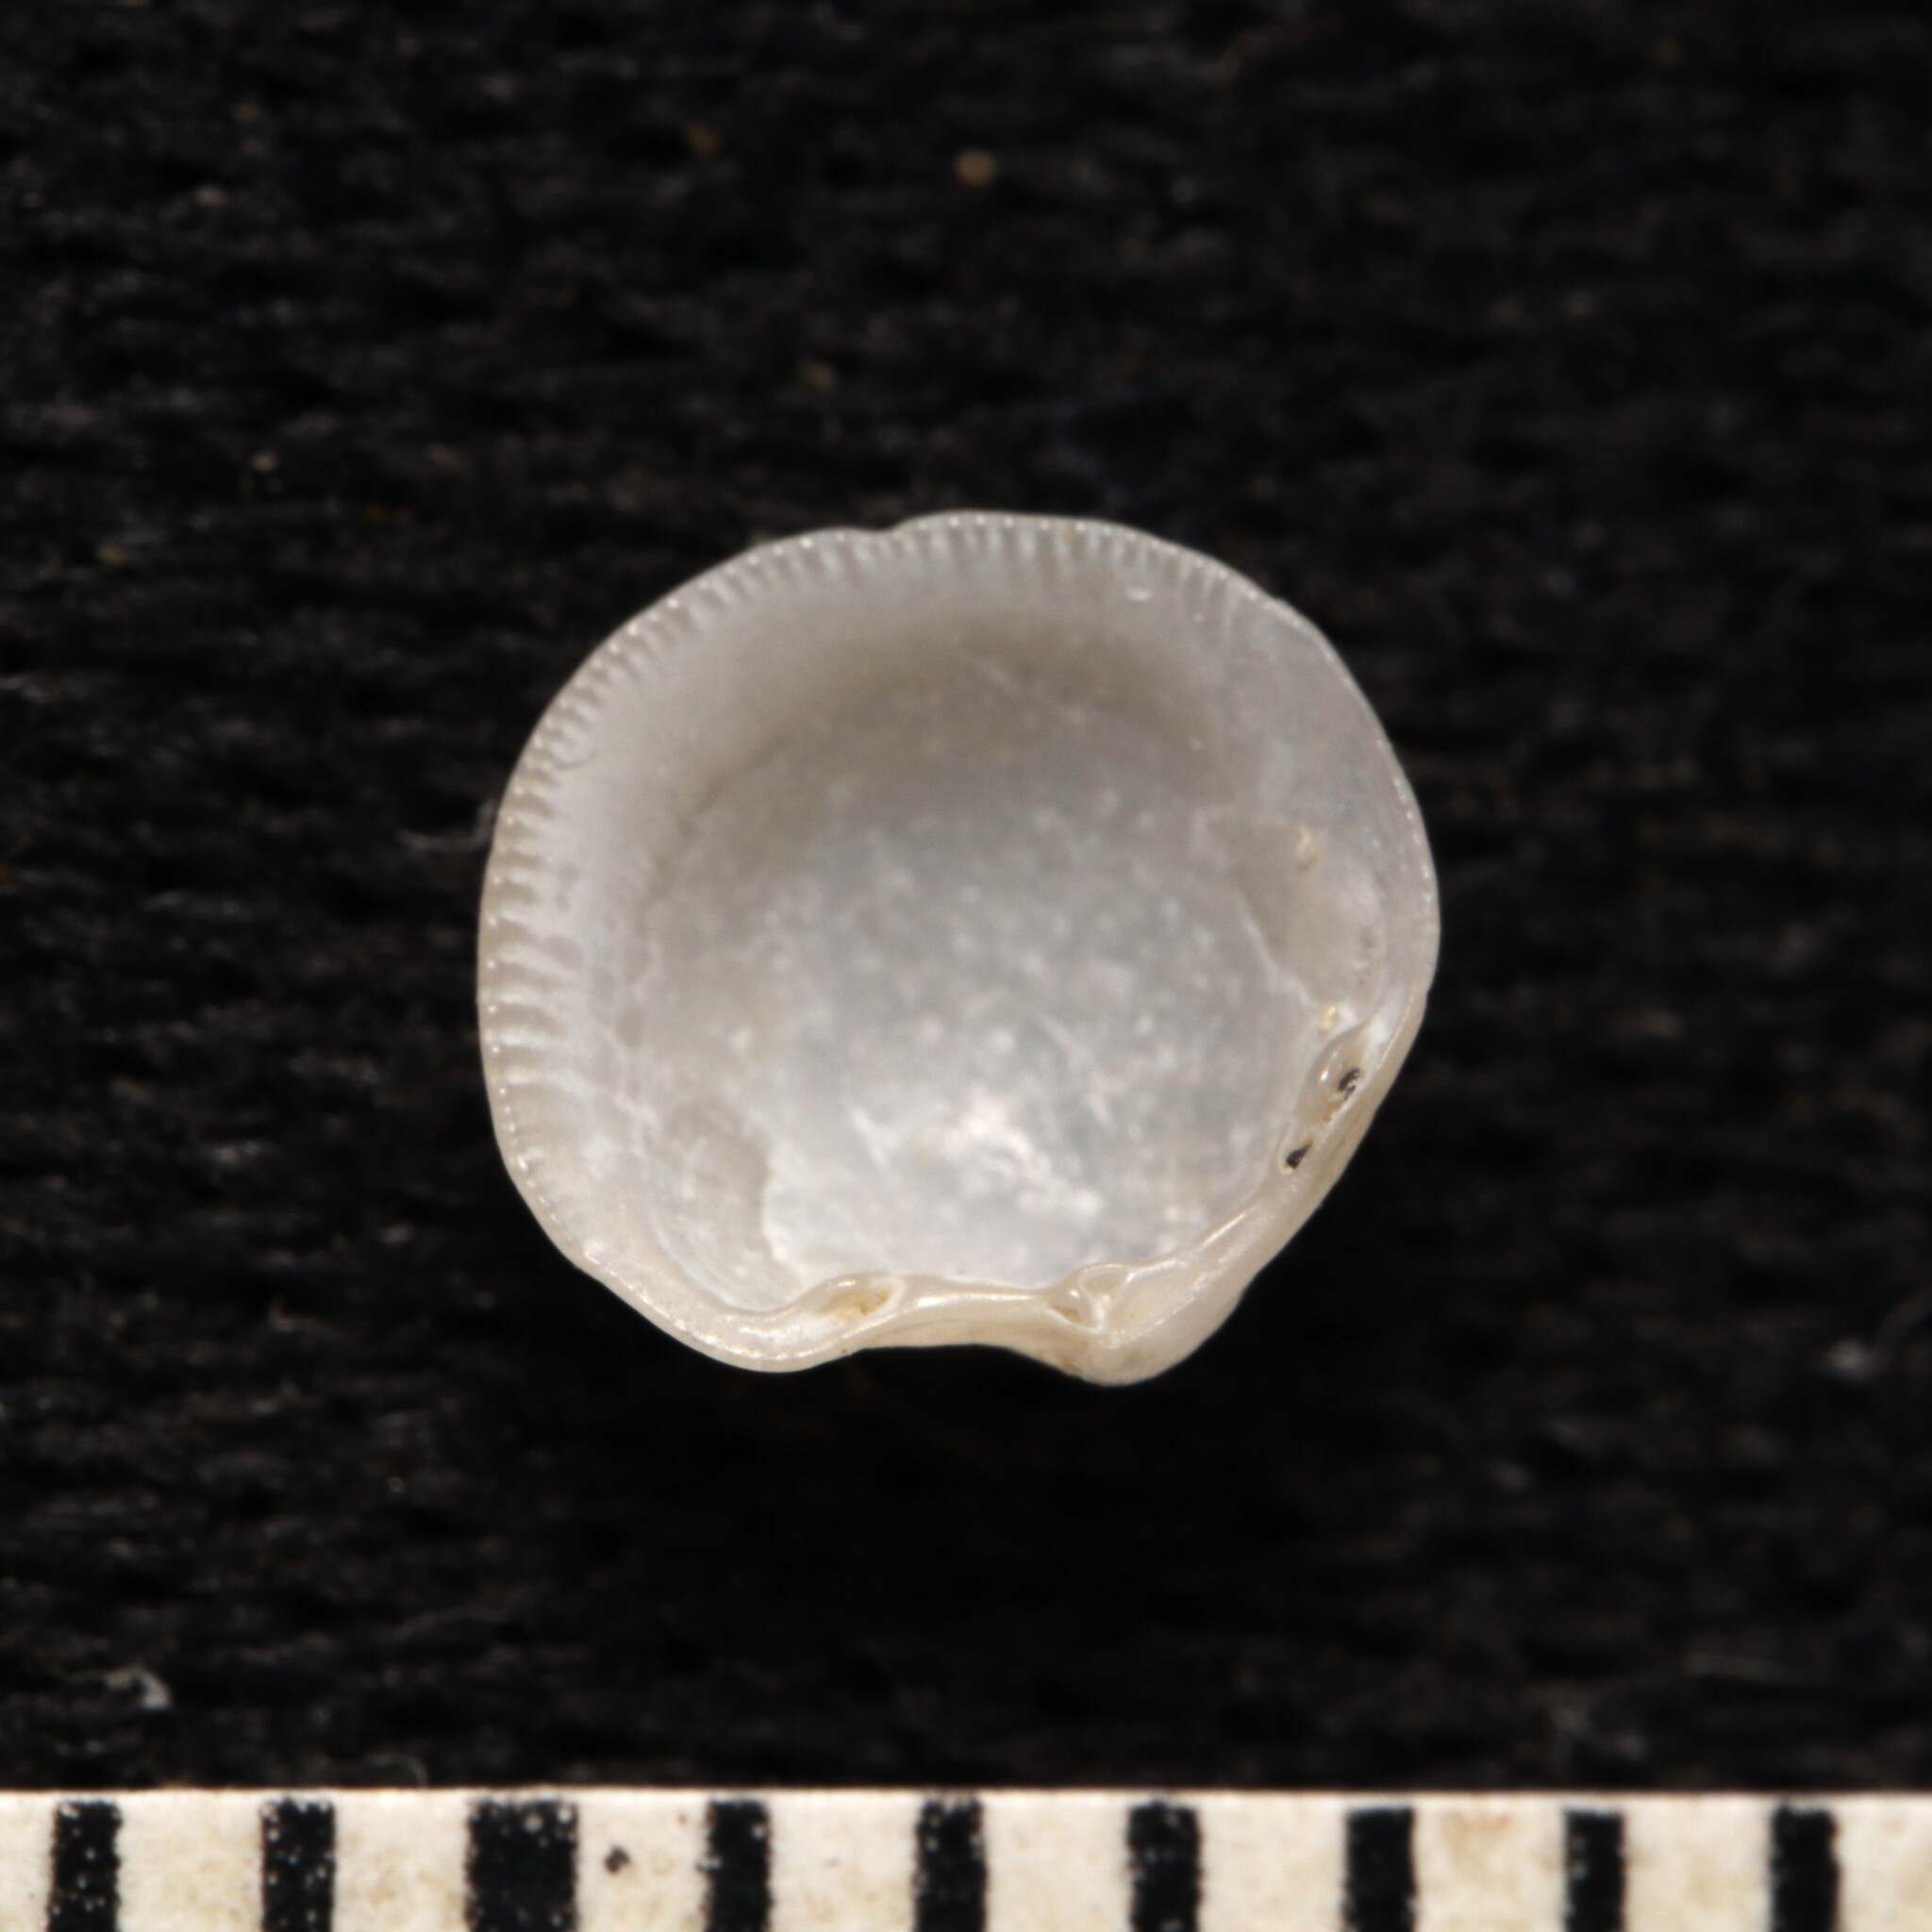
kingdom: Animalia
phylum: Mollusca
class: Bivalvia
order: Lucinida
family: Lucinidae
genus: Parvilucina
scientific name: Parvilucina crenella
